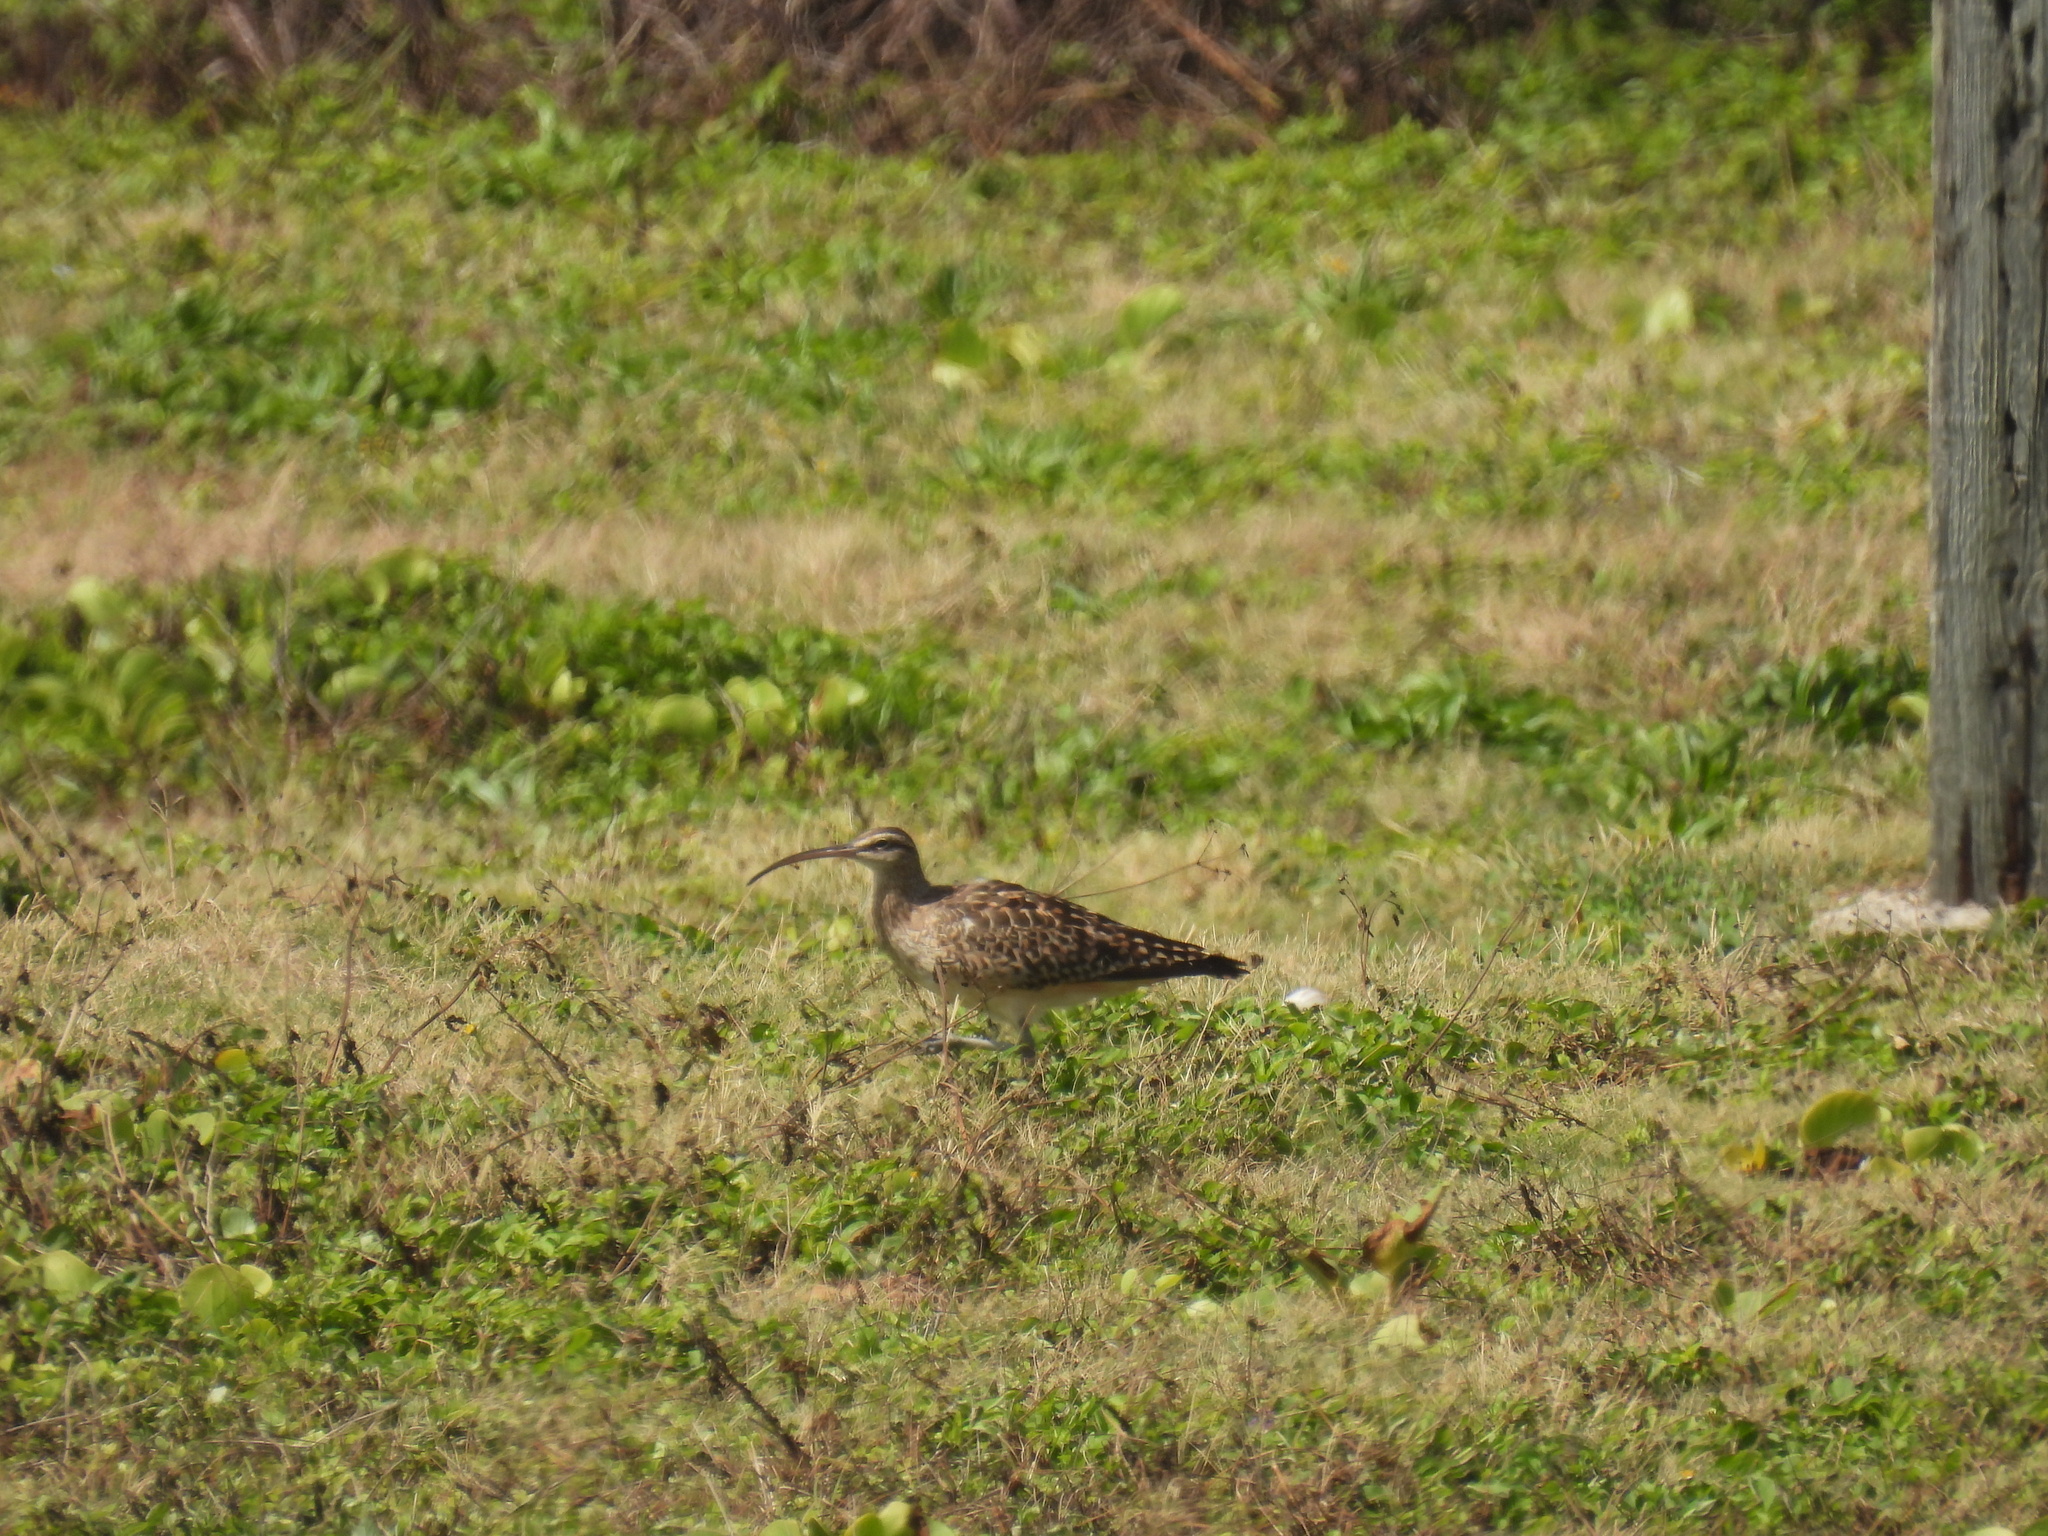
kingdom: Animalia
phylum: Chordata
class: Aves
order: Charadriiformes
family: Scolopacidae
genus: Numenius
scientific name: Numenius tahitiensis
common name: Bristle-thighed curlew
